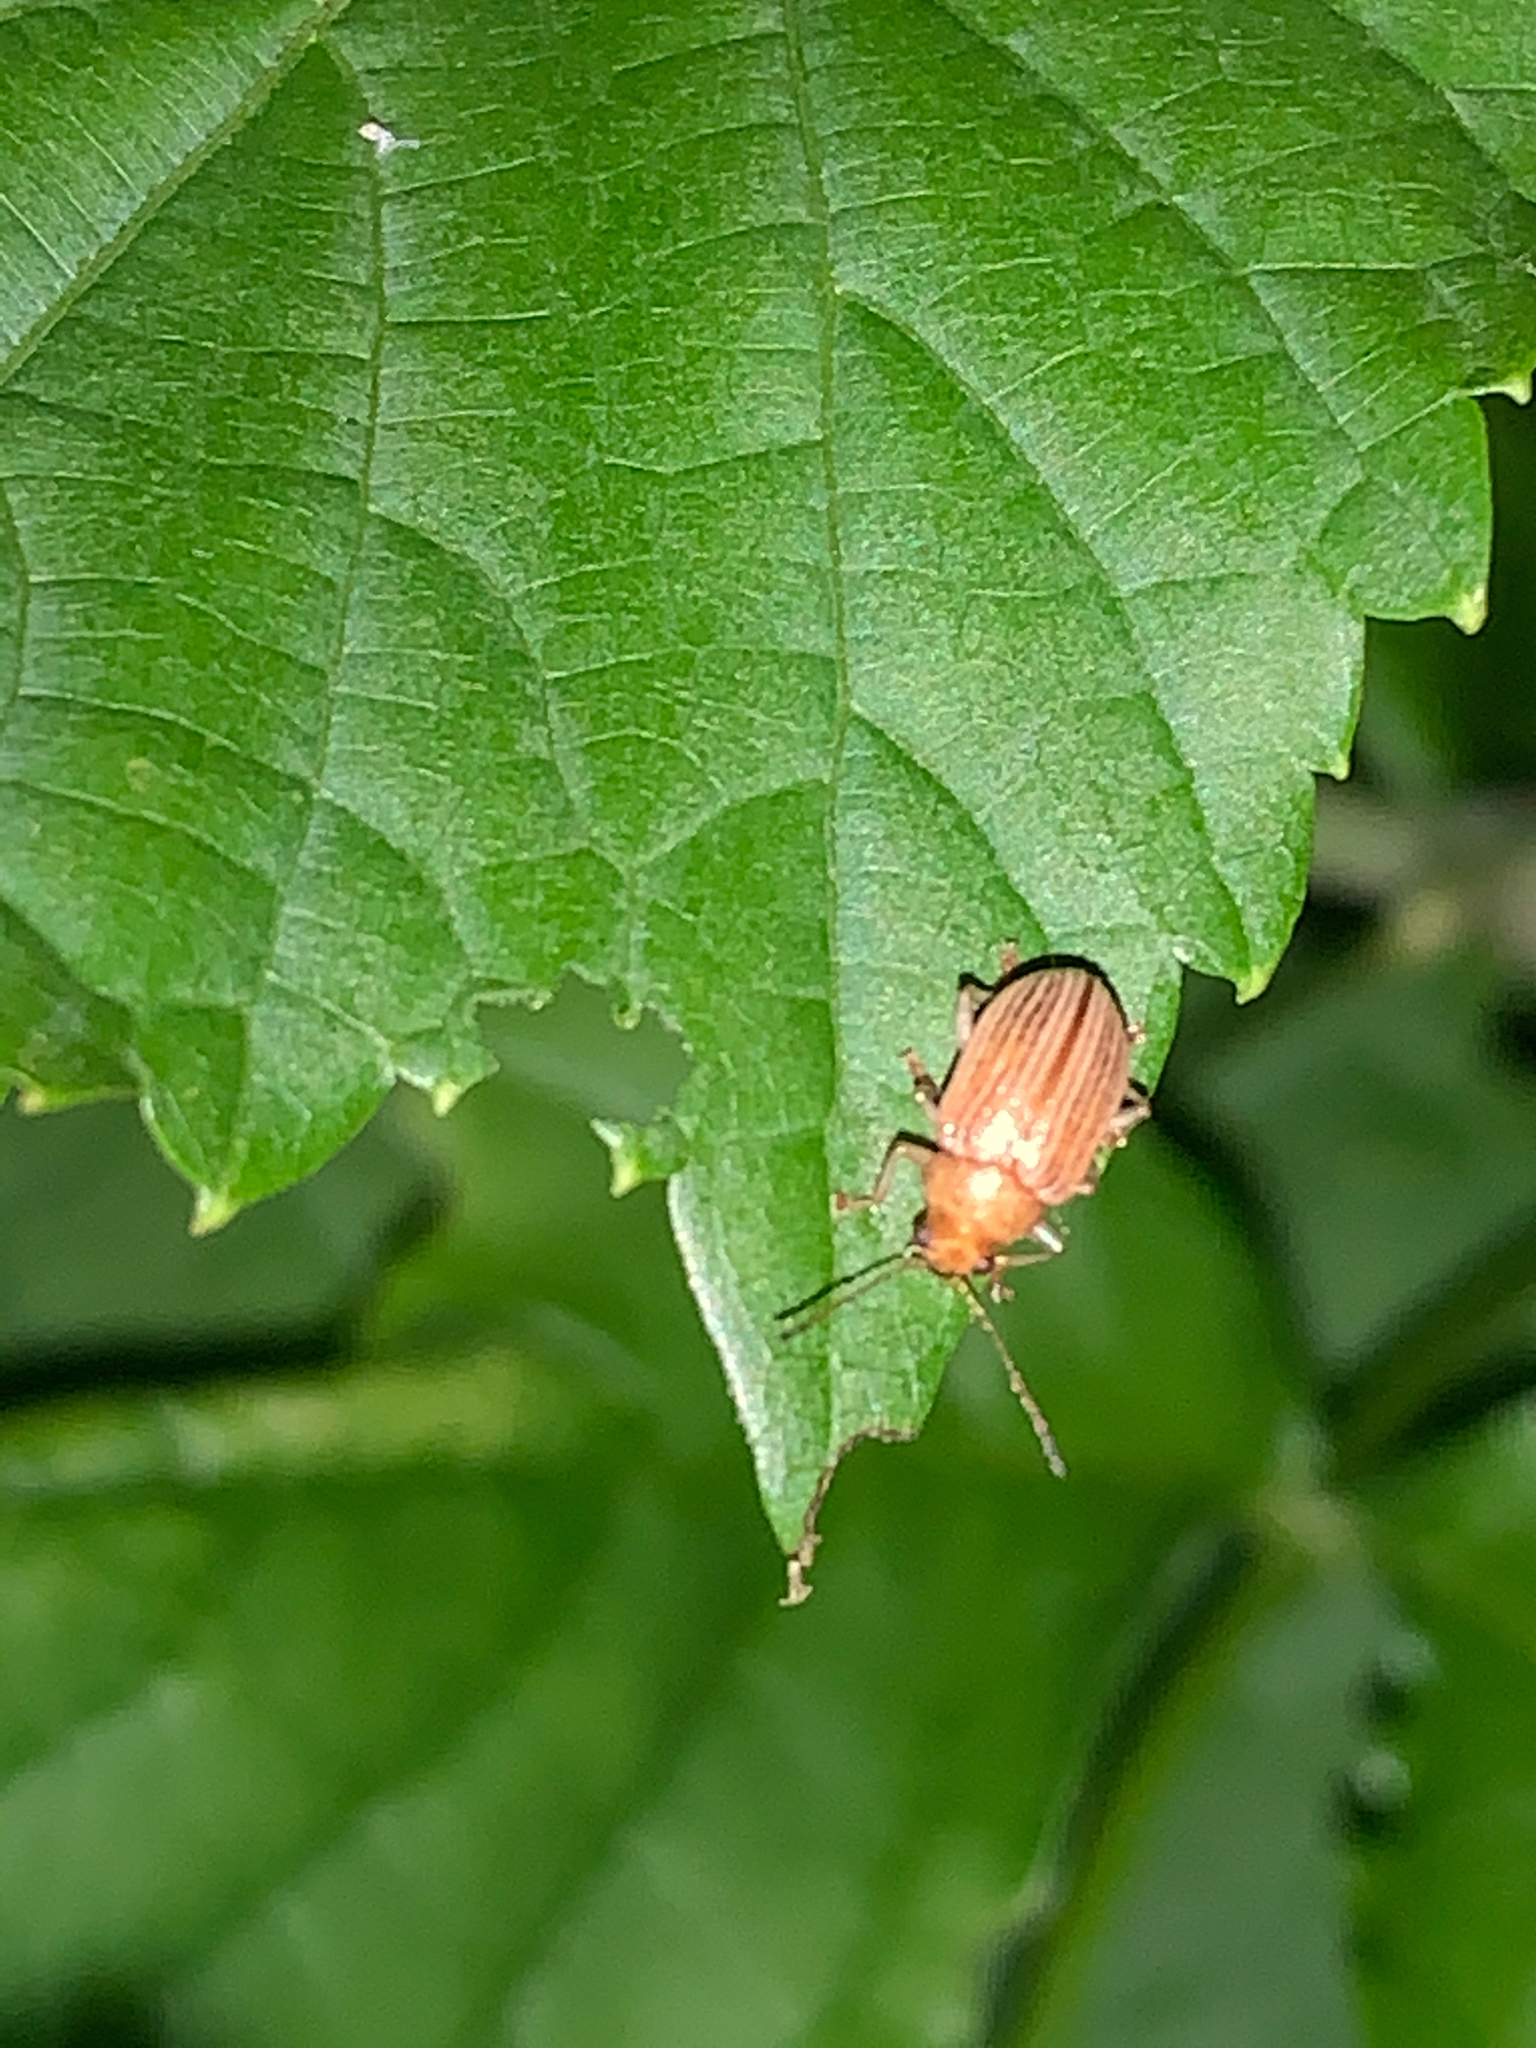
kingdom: Animalia
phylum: Arthropoda
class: Insecta
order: Coleoptera
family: Chrysomelidae
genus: Colaspis
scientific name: Colaspis brunnea
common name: Grape colaspis
